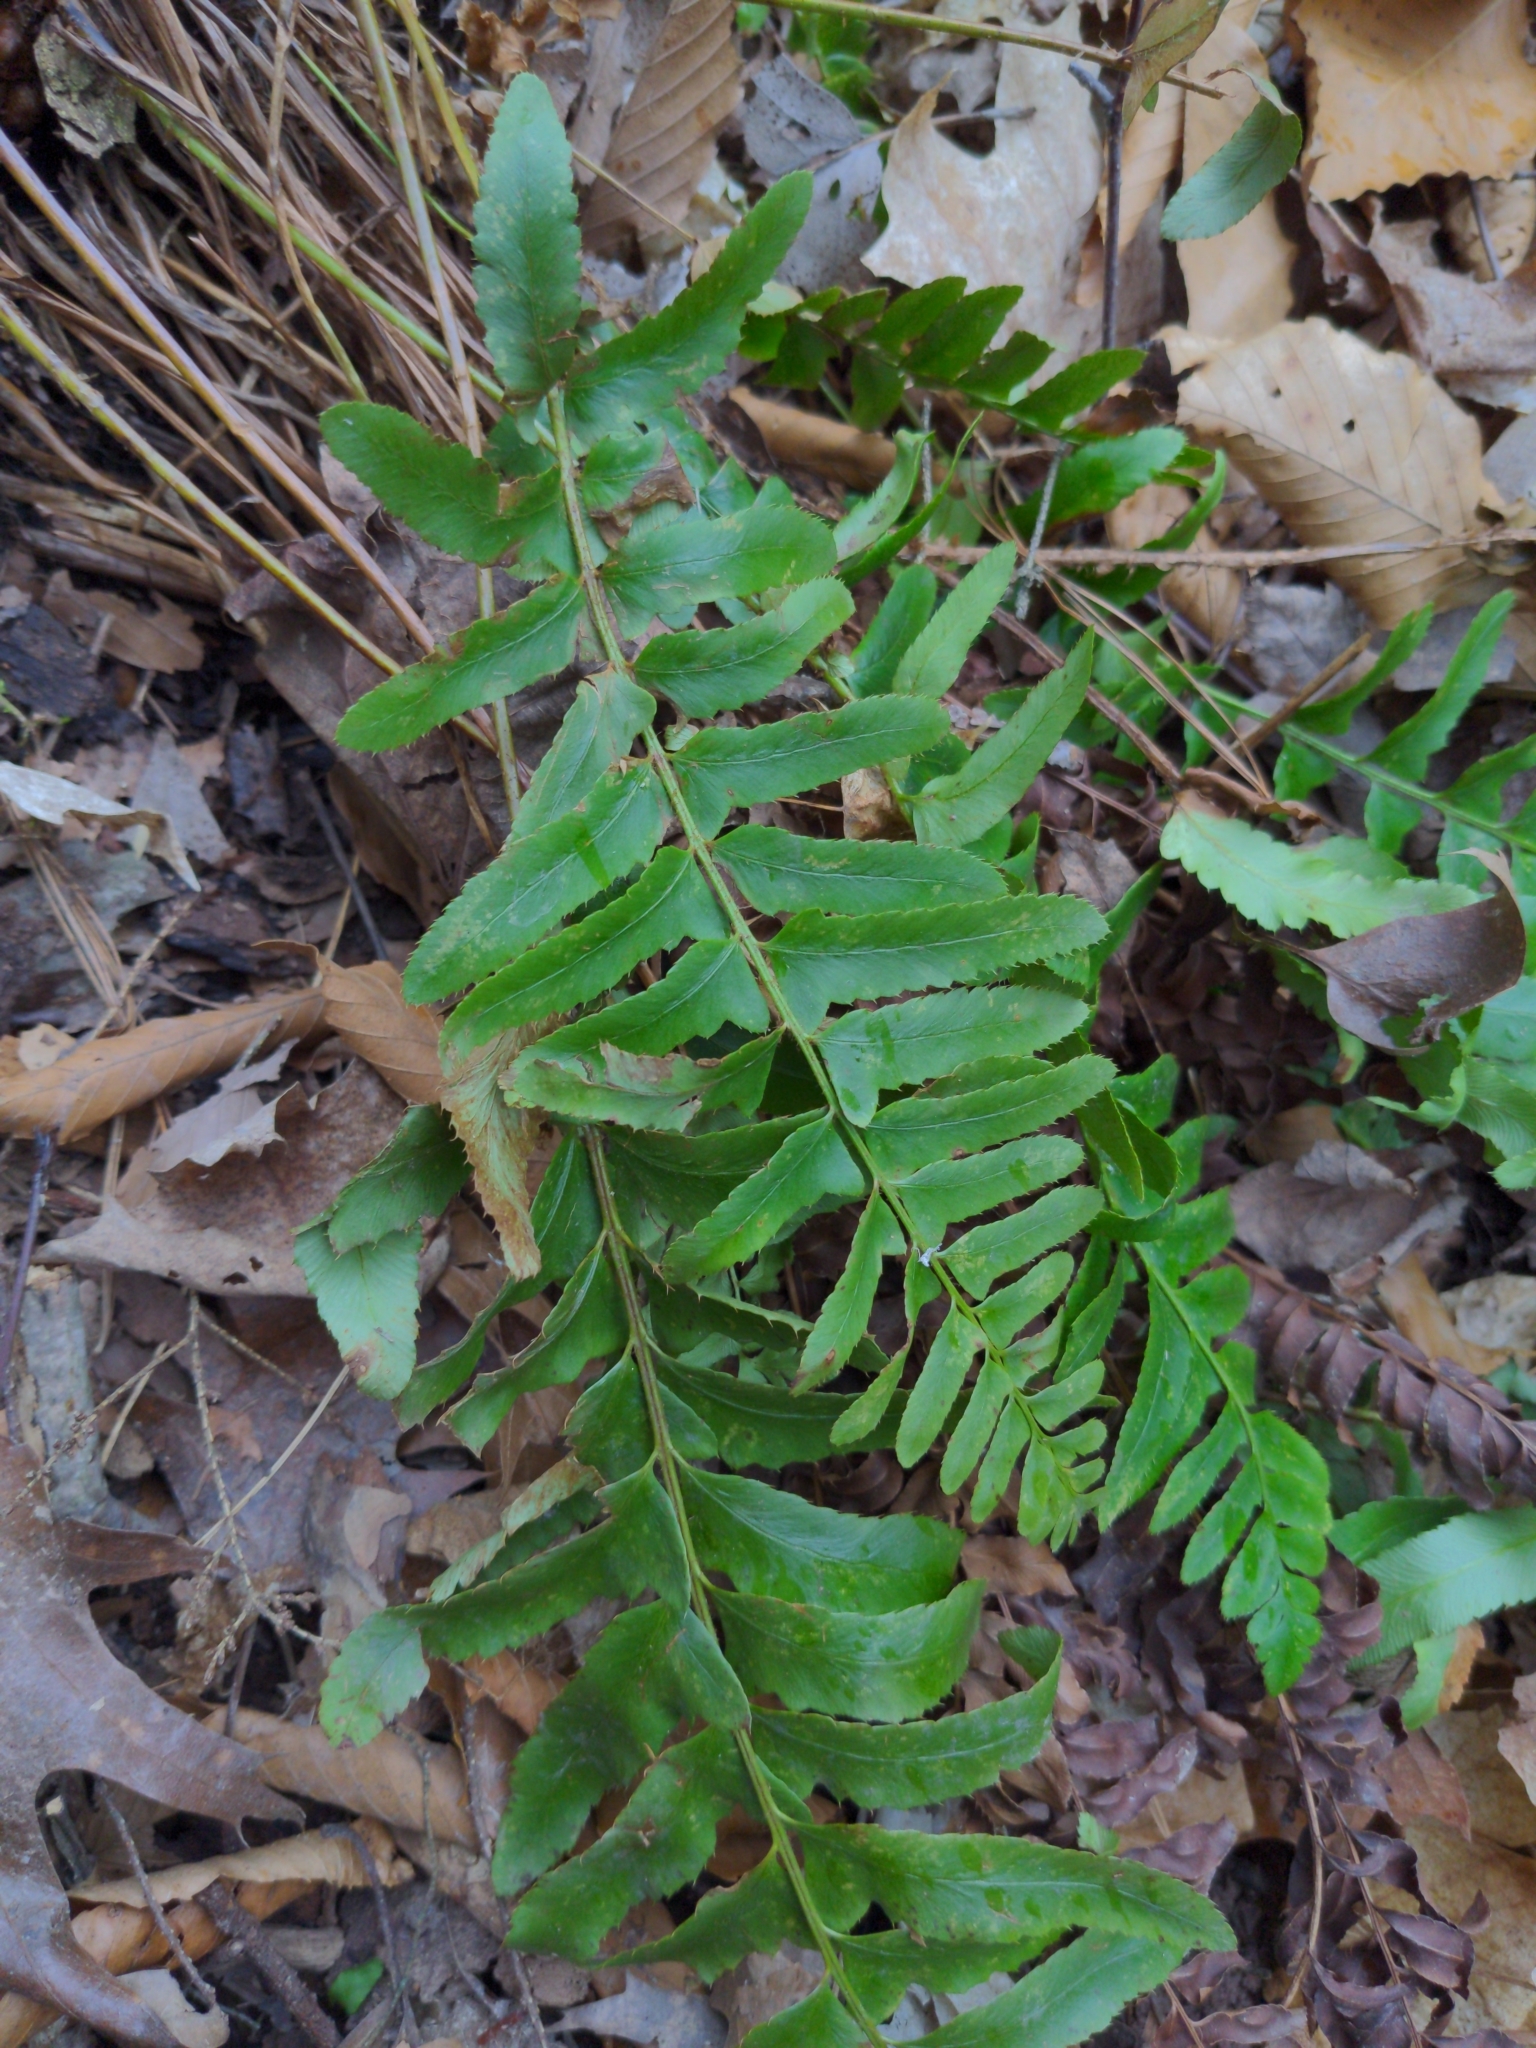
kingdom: Plantae
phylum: Tracheophyta
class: Polypodiopsida
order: Polypodiales
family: Dryopteridaceae
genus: Polystichum
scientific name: Polystichum acrostichoides
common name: Christmas fern
